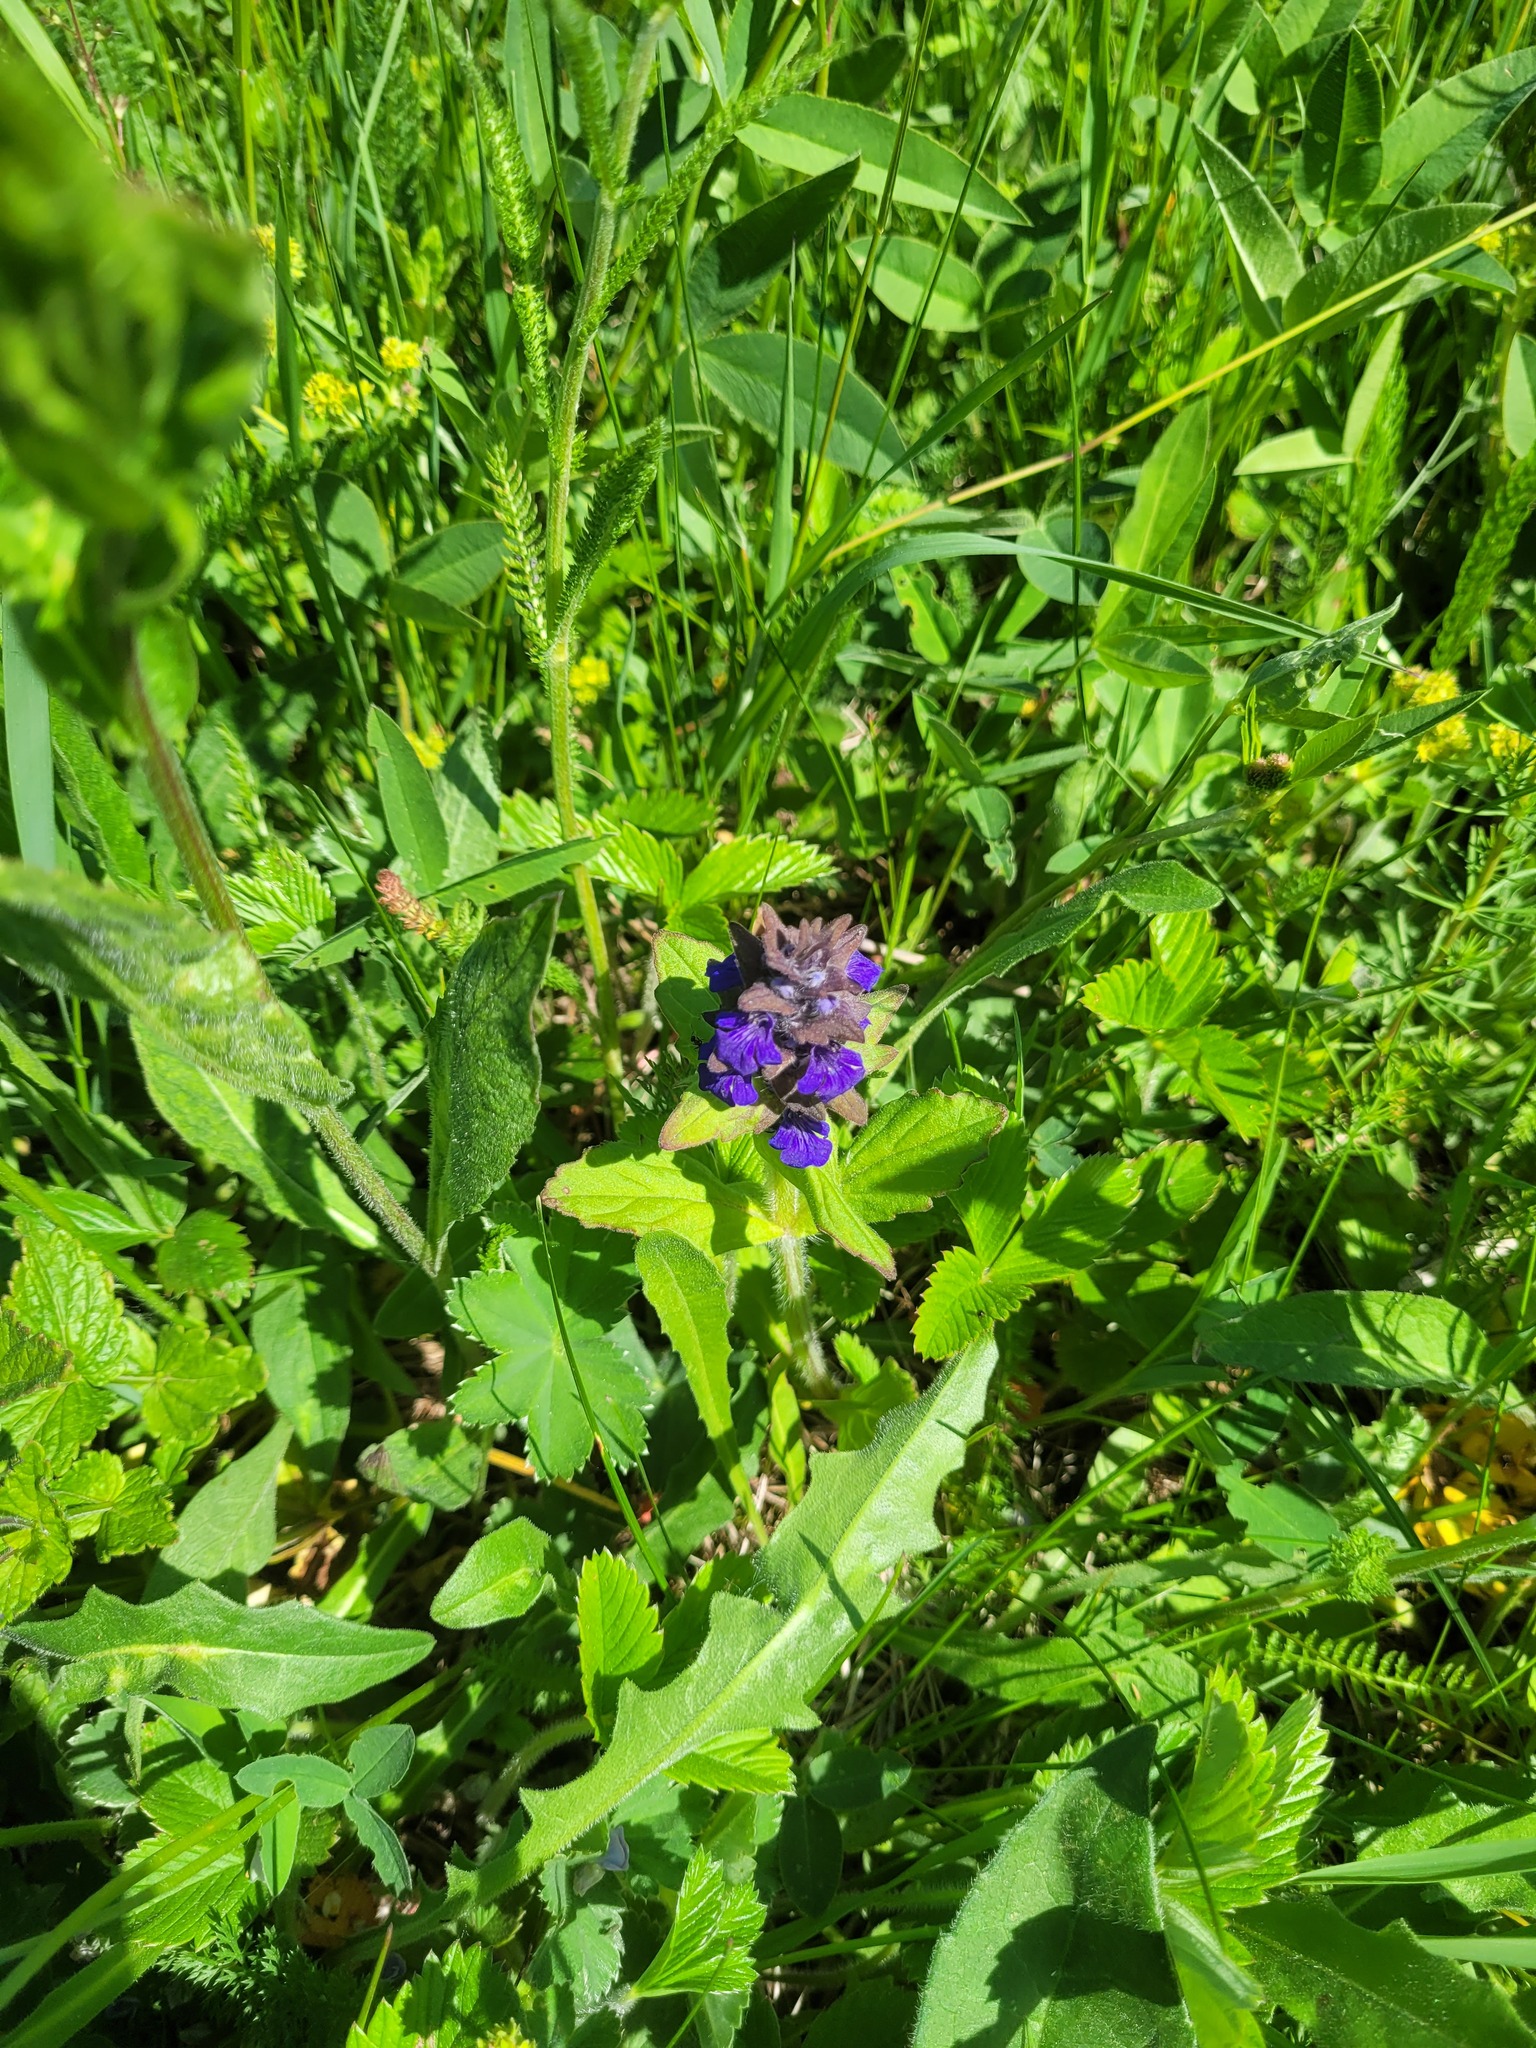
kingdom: Plantae
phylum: Tracheophyta
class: Magnoliopsida
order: Lamiales
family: Lamiaceae
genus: Ajuga
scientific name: Ajuga genevensis
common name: Blue bugle
